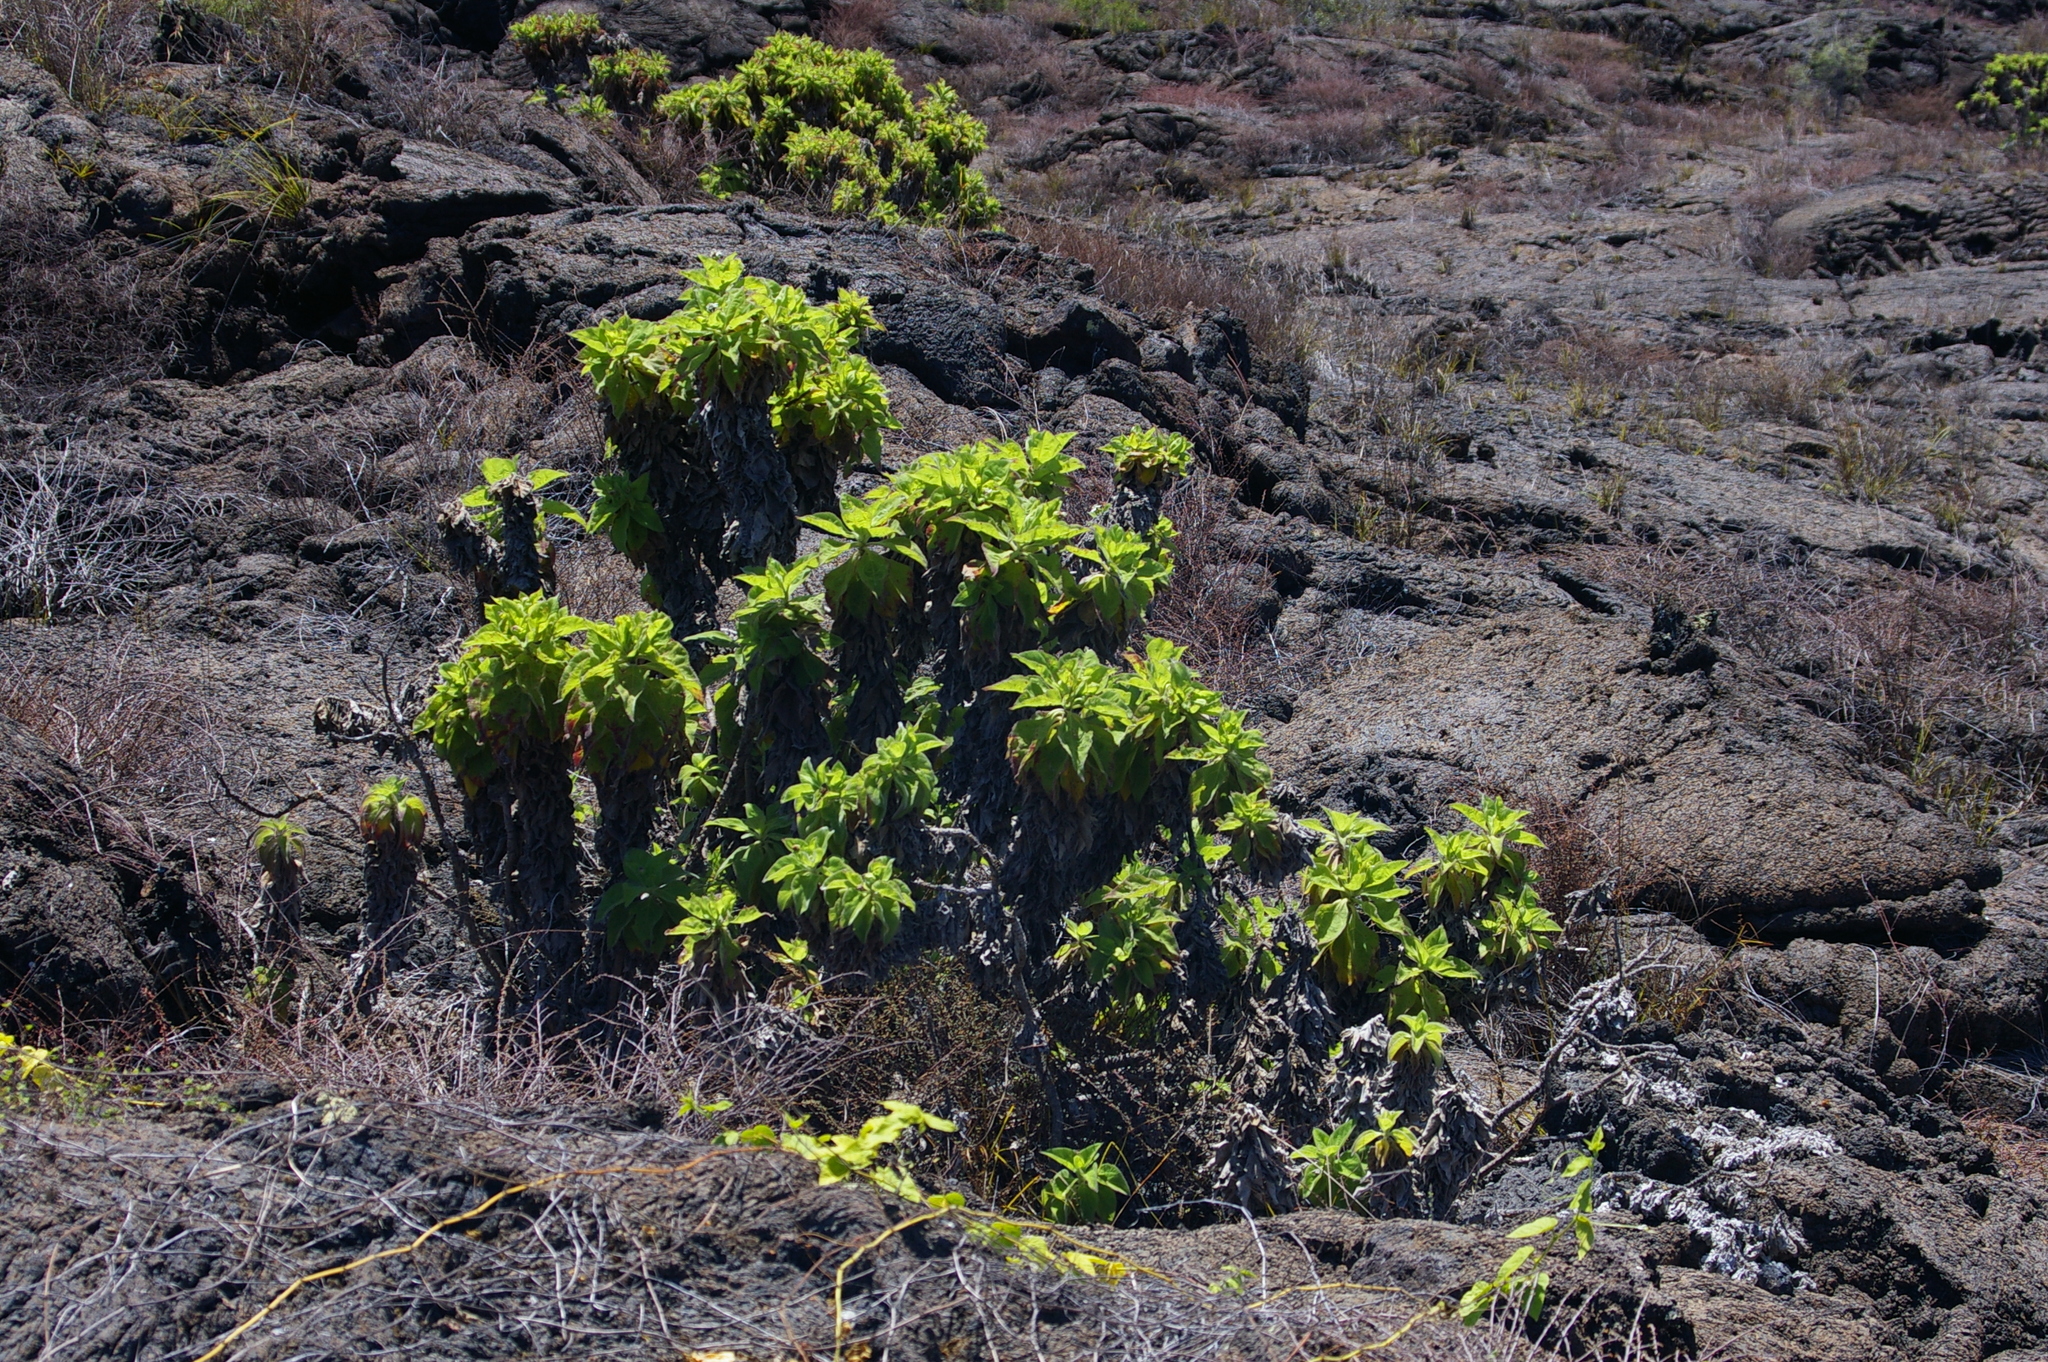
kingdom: Plantae
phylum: Tracheophyta
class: Magnoliopsida
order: Asterales
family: Asteraceae
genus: Scalesia
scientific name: Scalesia affinis
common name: Radiate-headed scalesia
